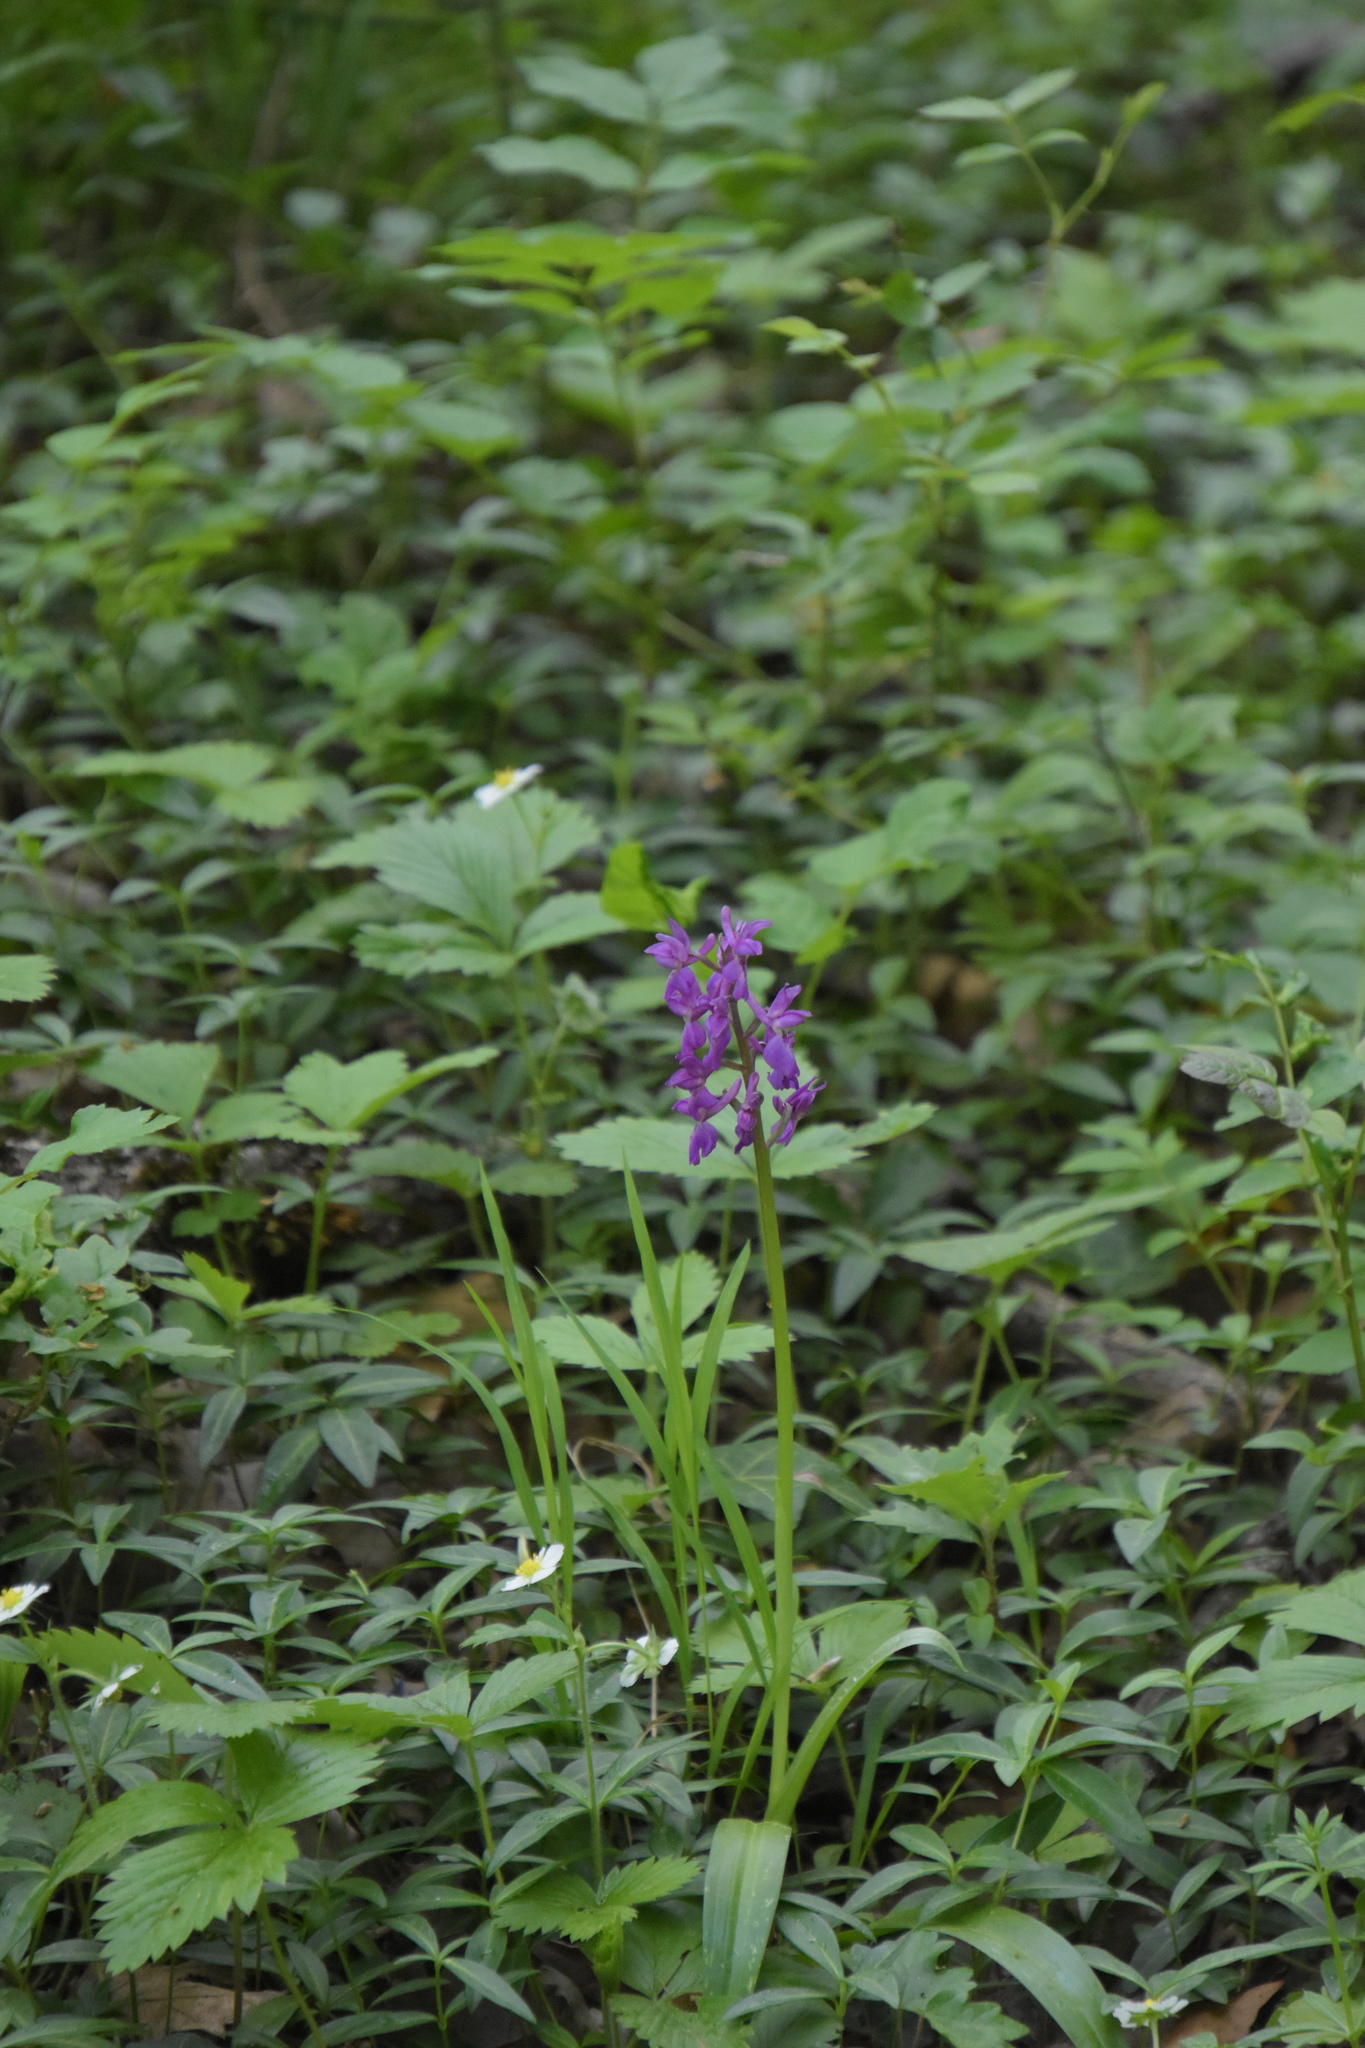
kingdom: Plantae
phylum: Tracheophyta
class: Liliopsida
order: Asparagales
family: Orchidaceae
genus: Orchis
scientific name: Orchis mascula
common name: Early-purple orchid
